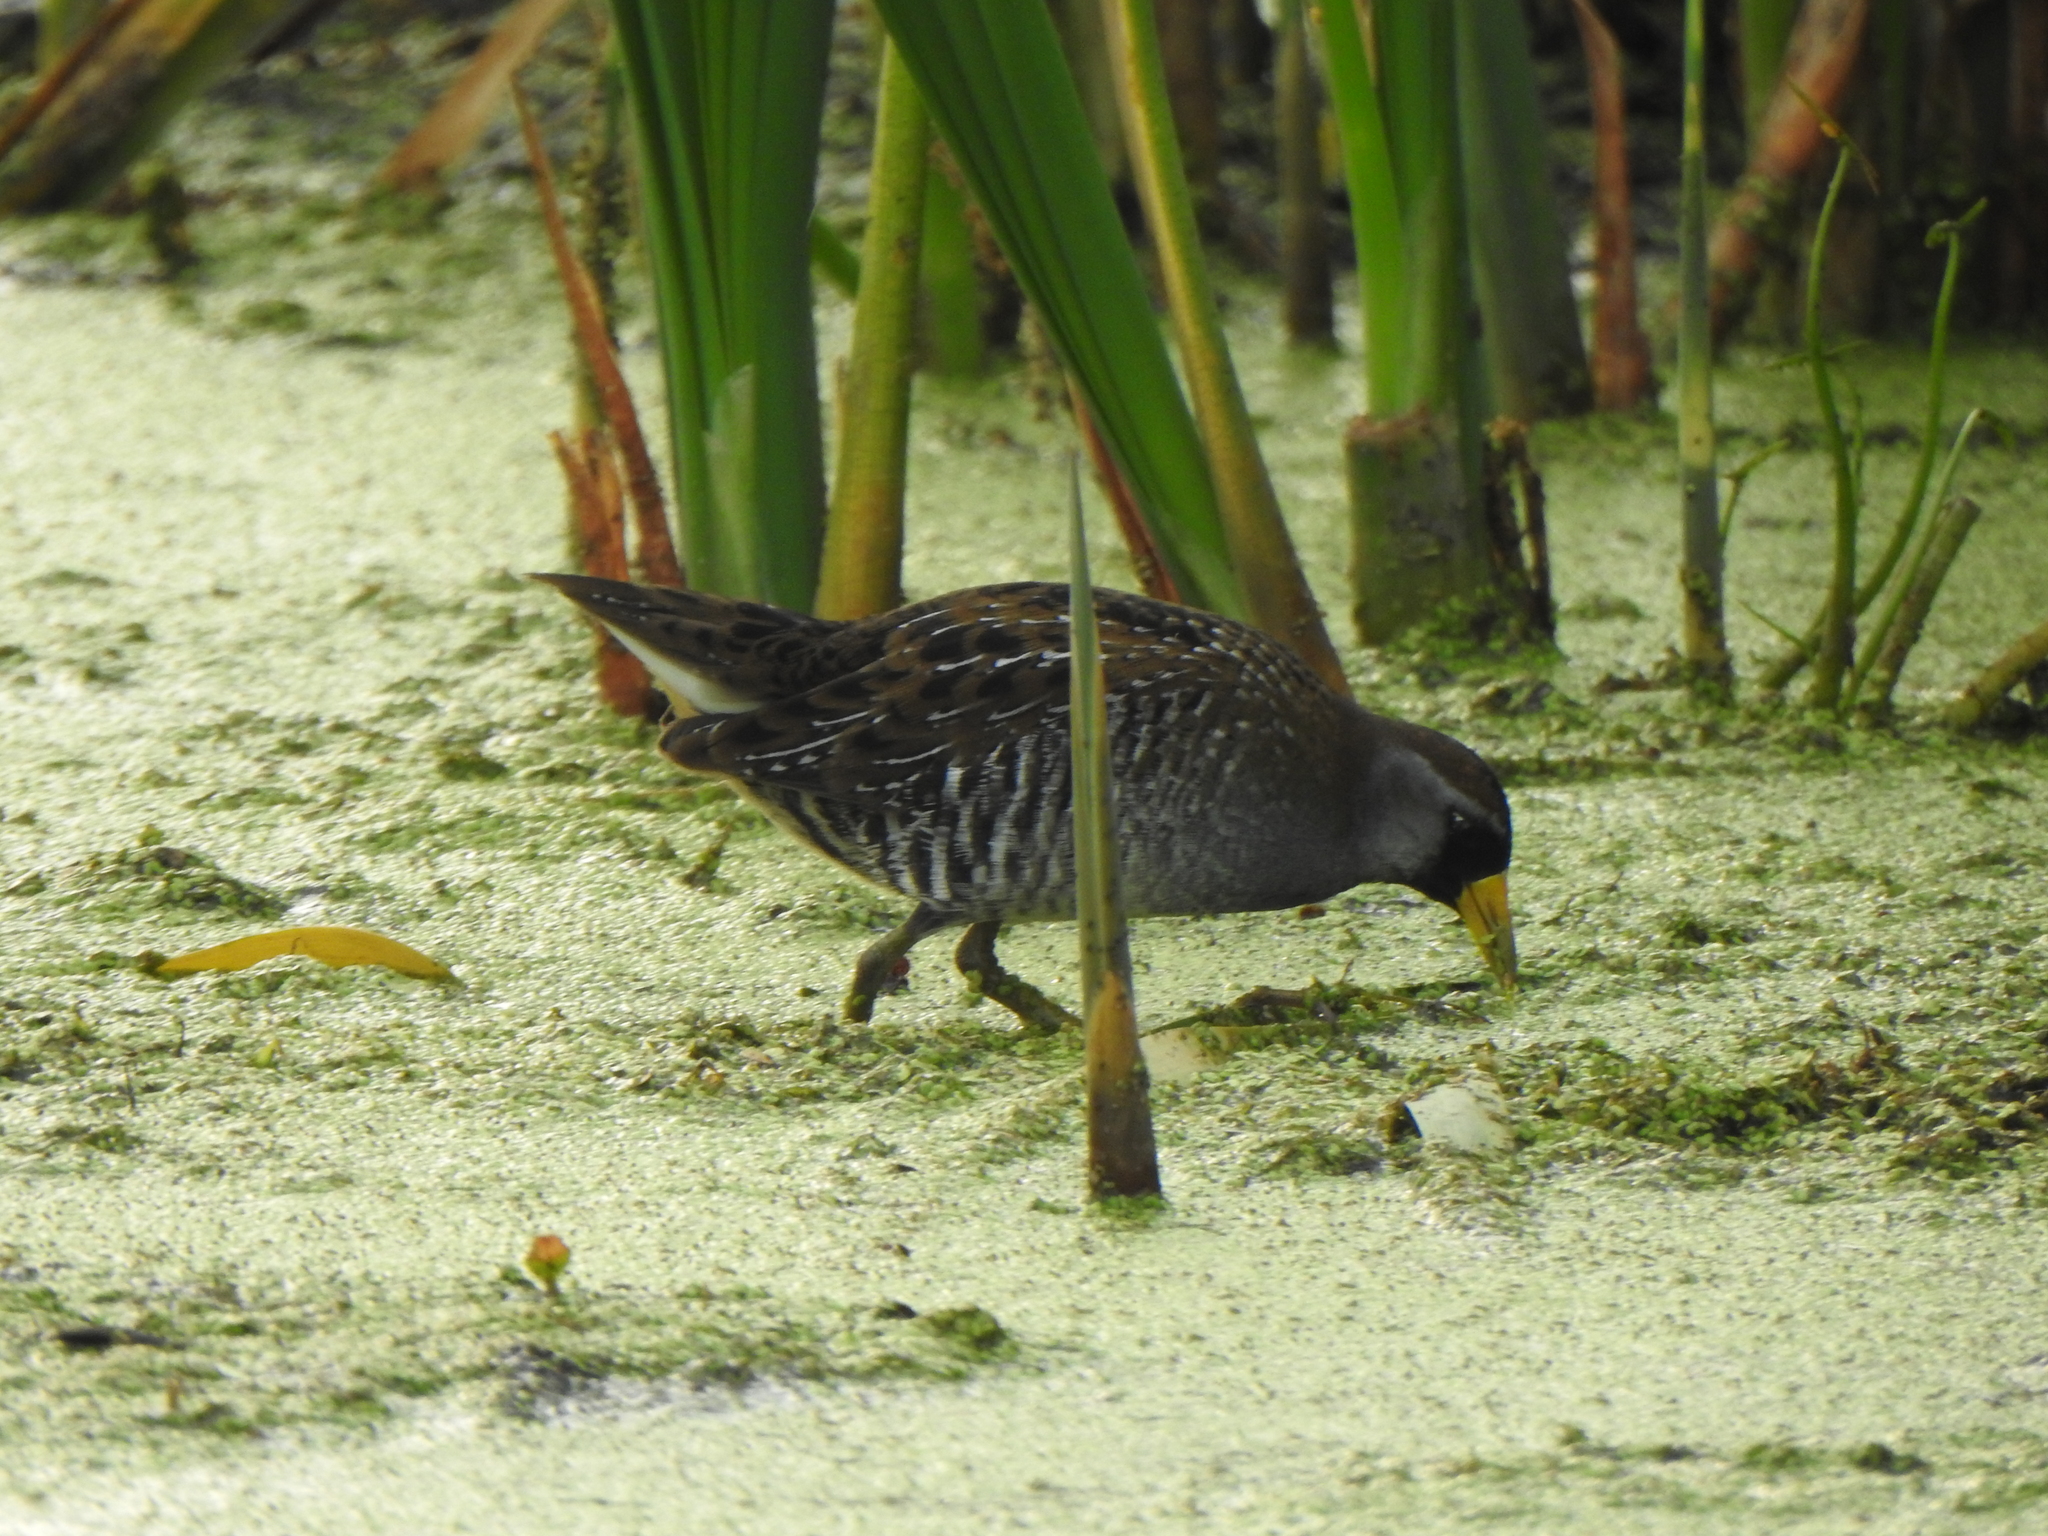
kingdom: Animalia
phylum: Chordata
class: Aves
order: Gruiformes
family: Rallidae
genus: Porzana
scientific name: Porzana carolina
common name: Sora
